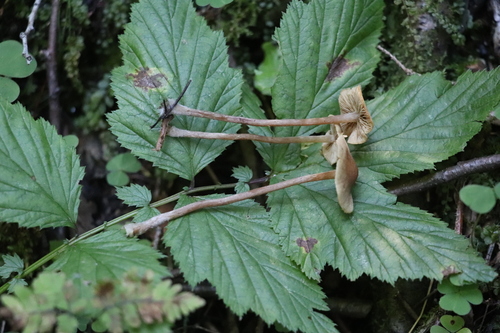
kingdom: Fungi
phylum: Basidiomycota
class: Agaricomycetes
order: Agaricales
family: Hymenogastraceae
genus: Naucoria
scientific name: Naucoria
